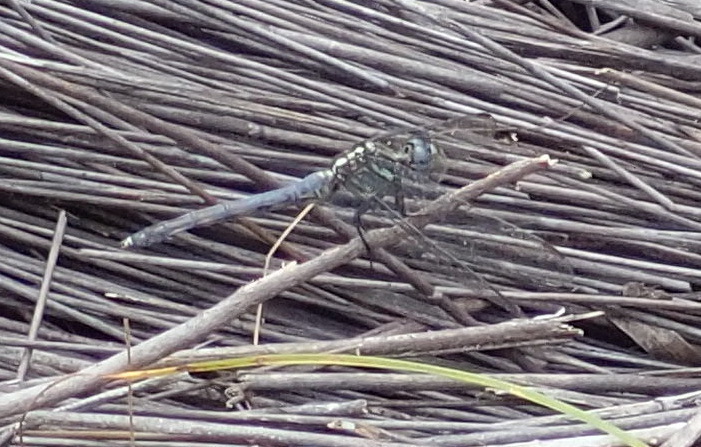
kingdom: Animalia
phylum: Arthropoda
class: Insecta
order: Odonata
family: Libellulidae
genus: Orthetrum
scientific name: Orthetrum julia
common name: Julia skimmer
